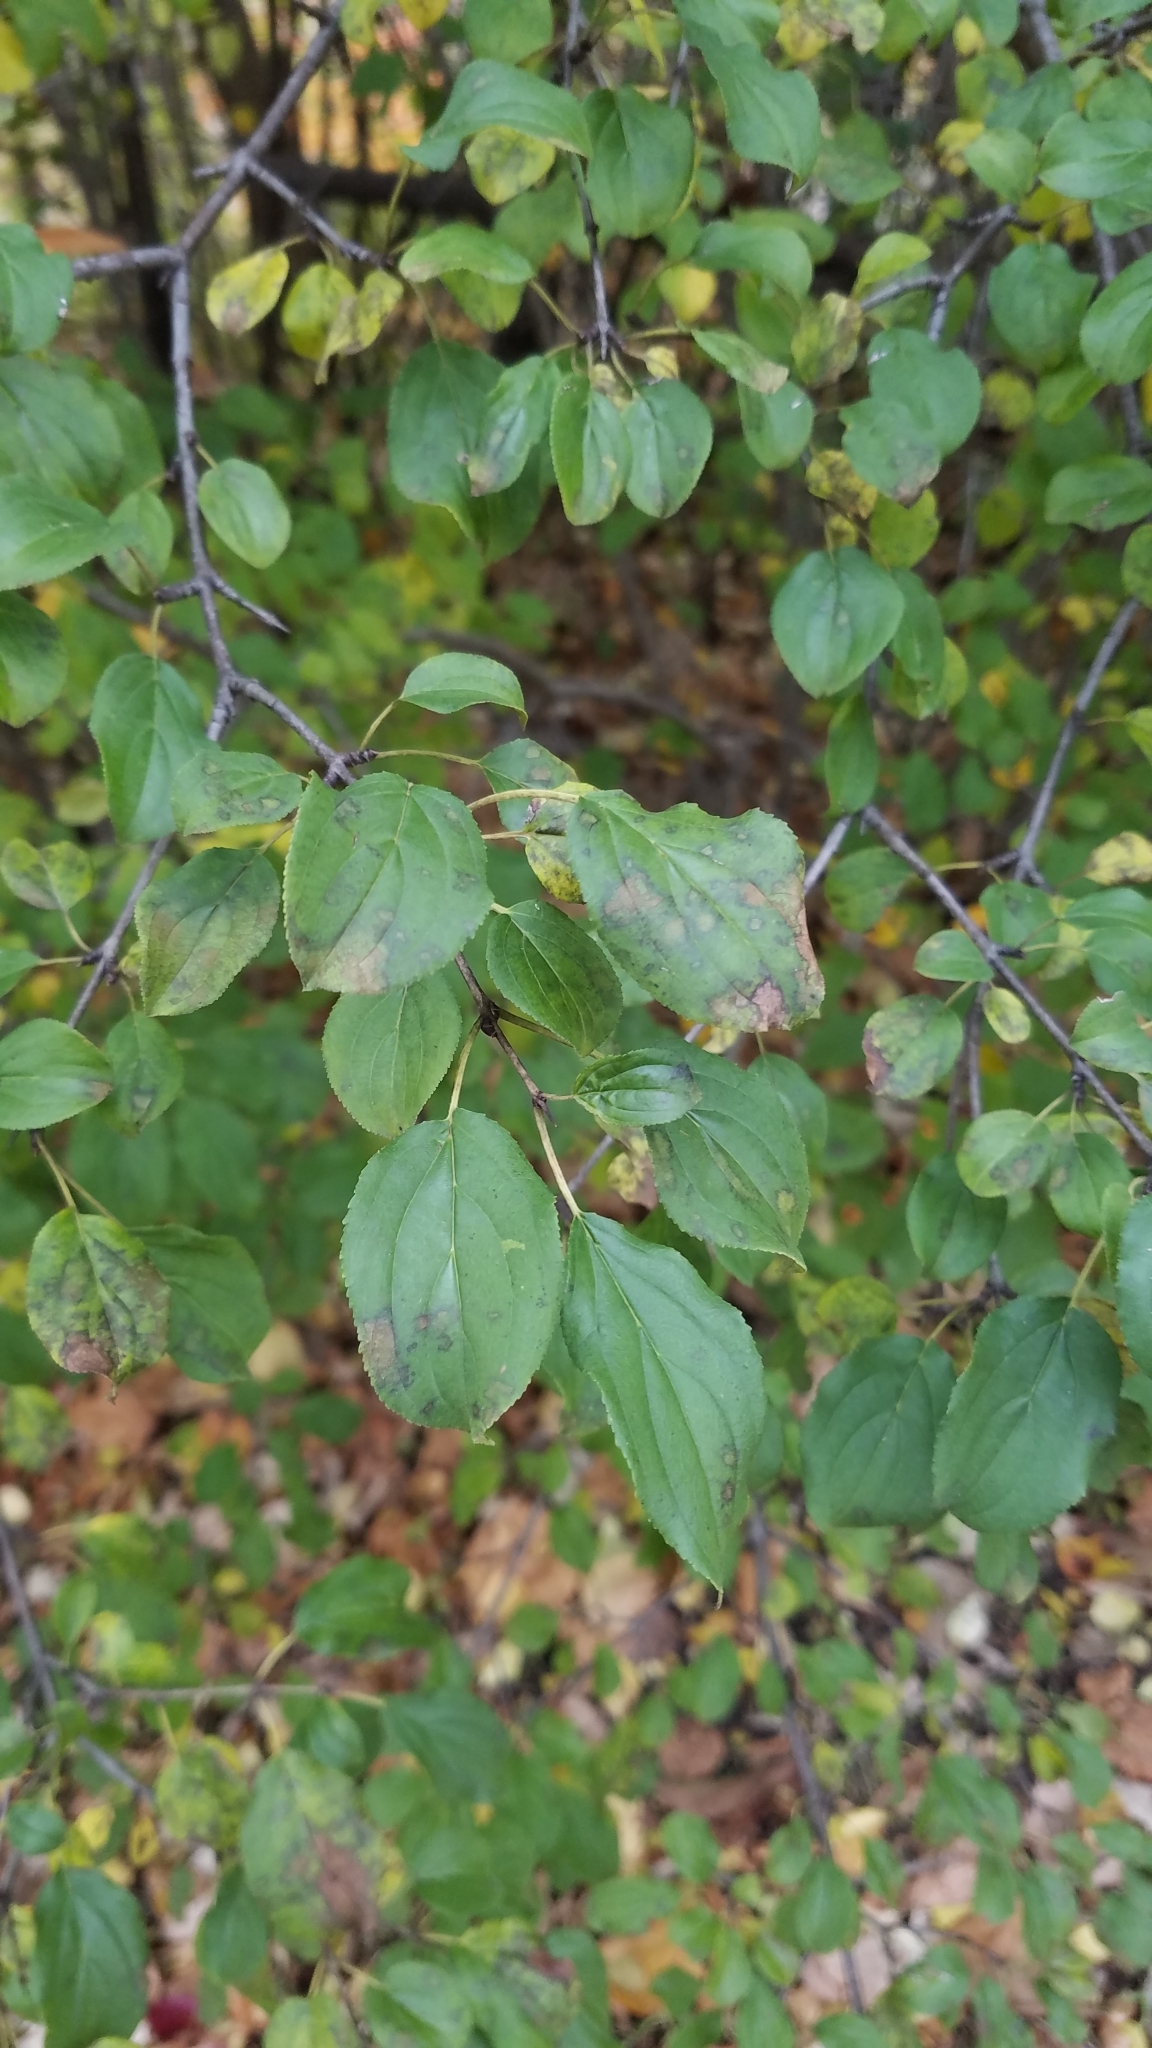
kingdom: Plantae
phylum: Tracheophyta
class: Magnoliopsida
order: Rosales
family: Rhamnaceae
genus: Rhamnus
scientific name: Rhamnus cathartica
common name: Common buckthorn
